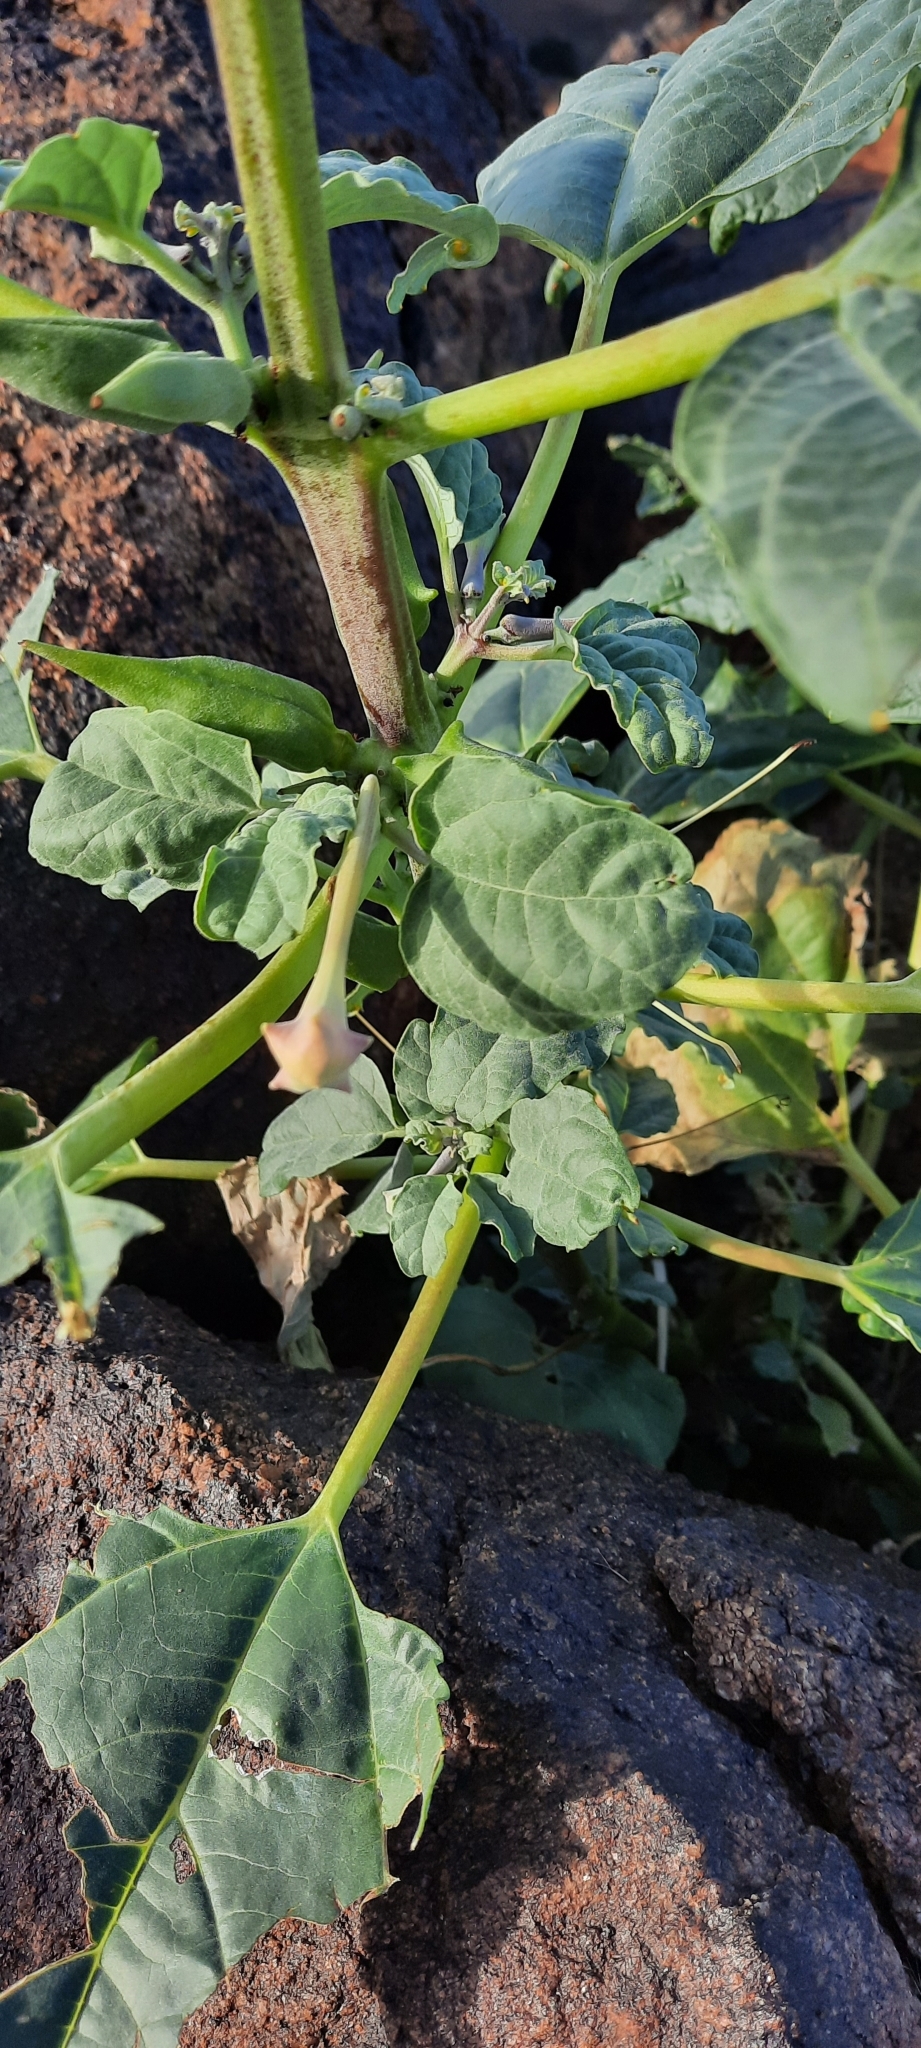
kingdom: Plantae
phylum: Tracheophyta
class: Magnoliopsida
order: Lamiales
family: Pedaliaceae
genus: Rogeria
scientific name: Rogeria longiflora
